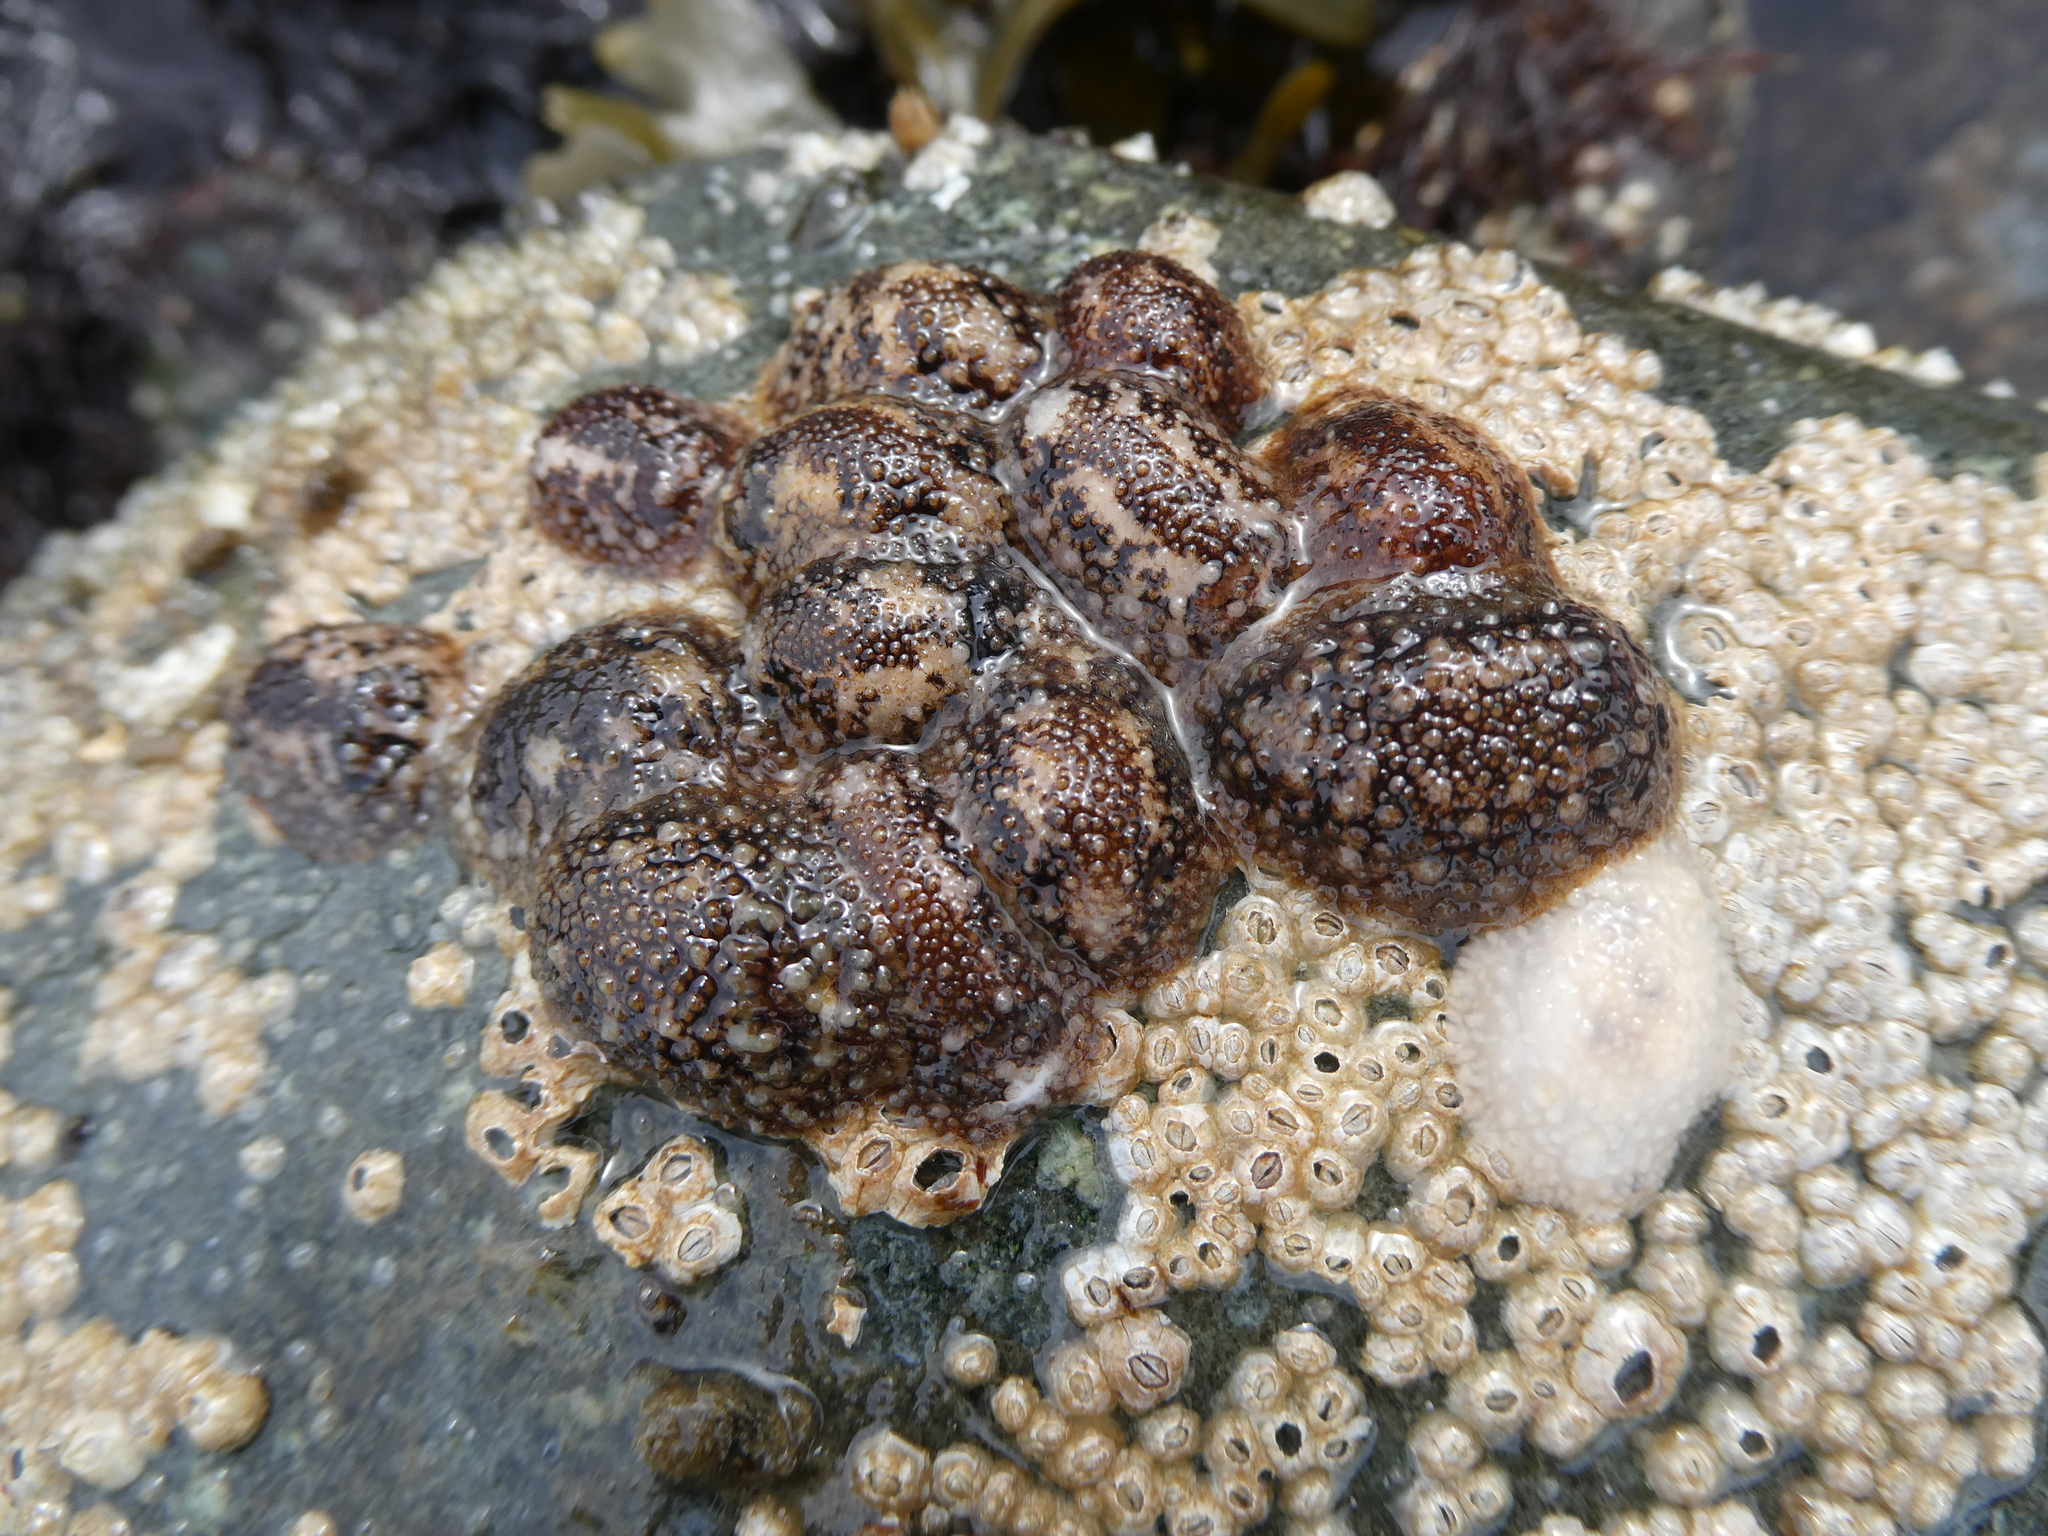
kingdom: Animalia
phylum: Mollusca
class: Gastropoda
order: Nudibranchia
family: Onchidorididae
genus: Onchidoris
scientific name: Onchidoris bilamellata
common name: Barnacle-eating onchidoris
